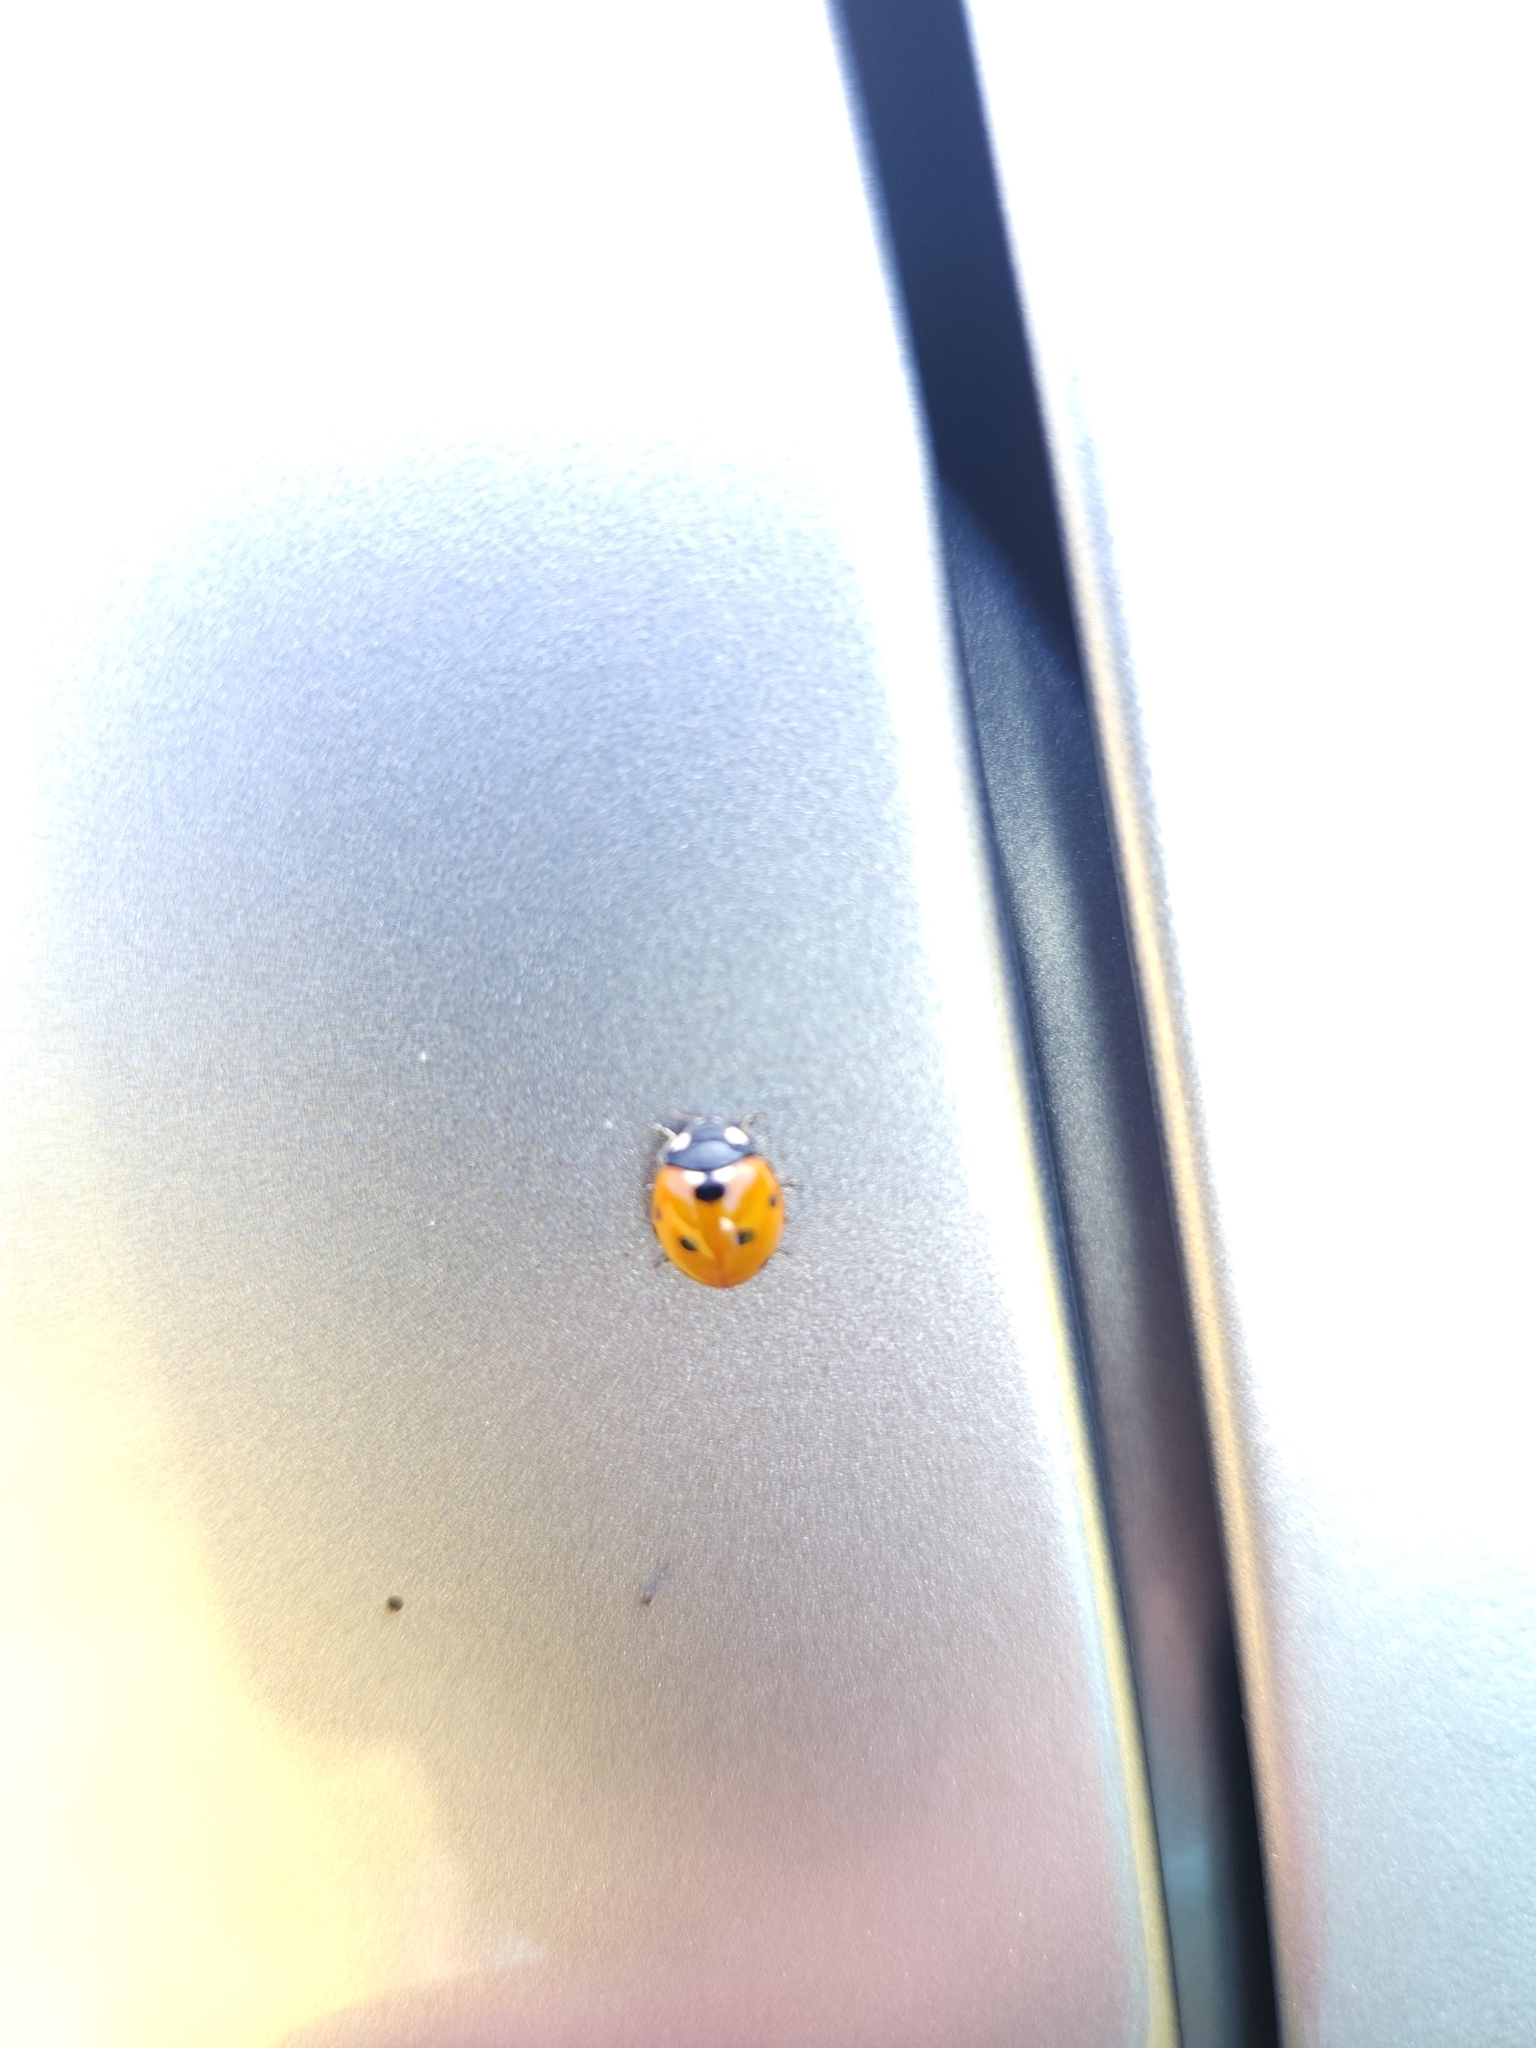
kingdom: Animalia
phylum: Arthropoda
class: Insecta
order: Coleoptera
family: Coccinellidae
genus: Coccinella
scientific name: Coccinella septempunctata
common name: Sevenspotted lady beetle
